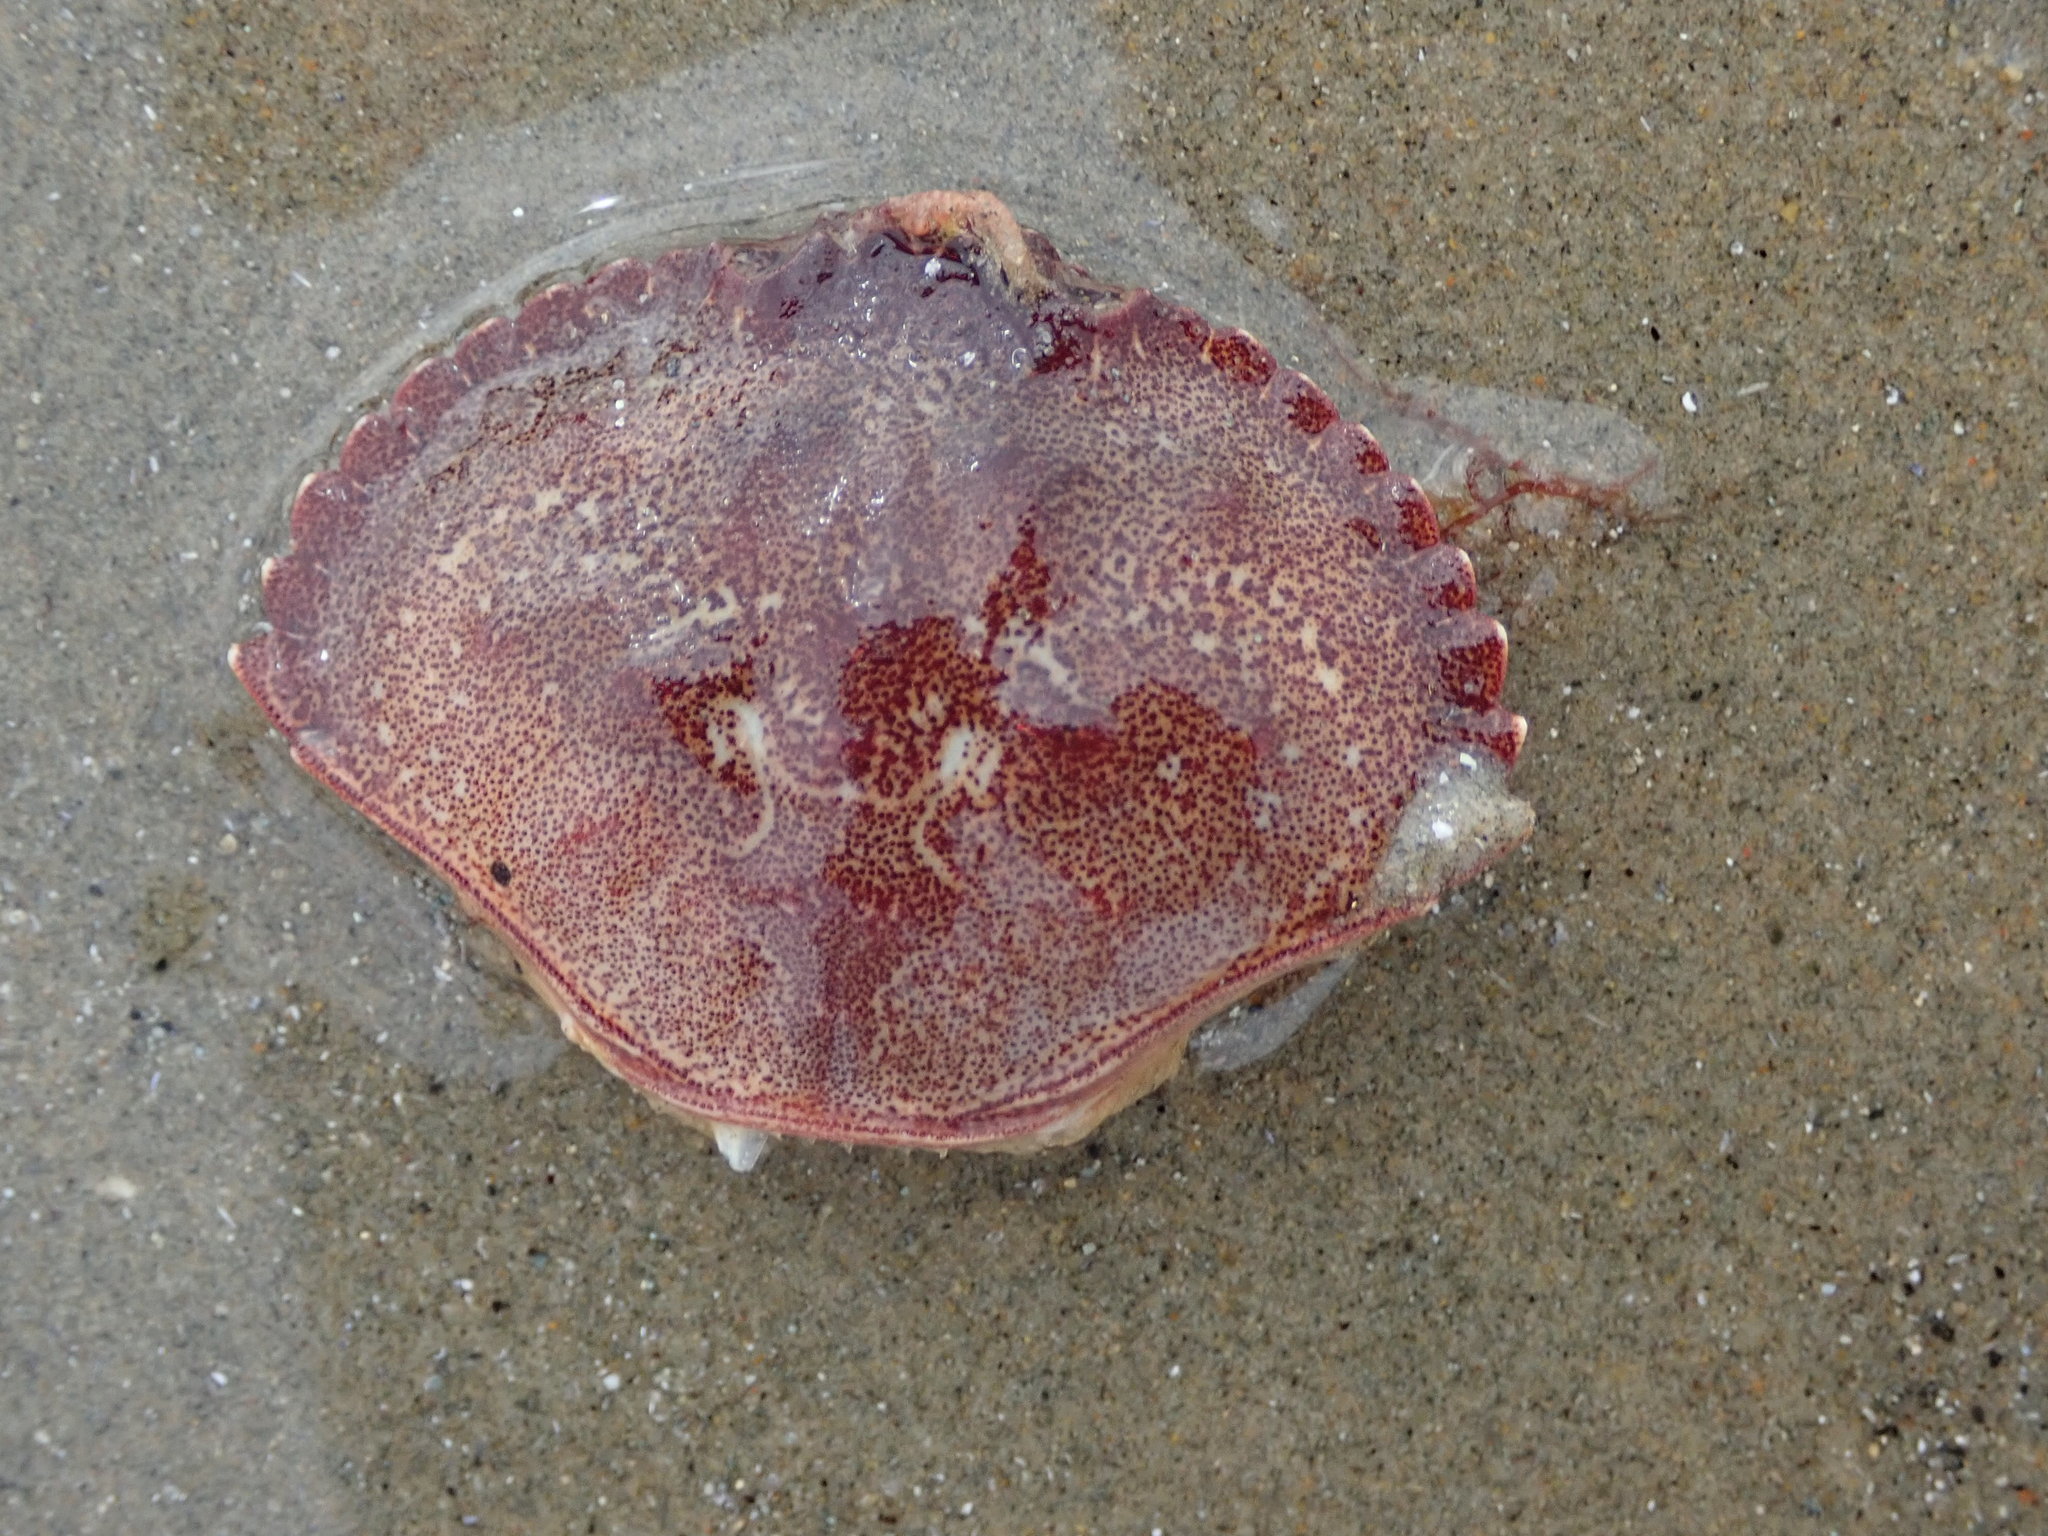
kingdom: Animalia
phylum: Arthropoda
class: Malacostraca
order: Decapoda
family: Cancridae
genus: Cancer
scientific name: Cancer irroratus
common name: Atlantic rock crab
